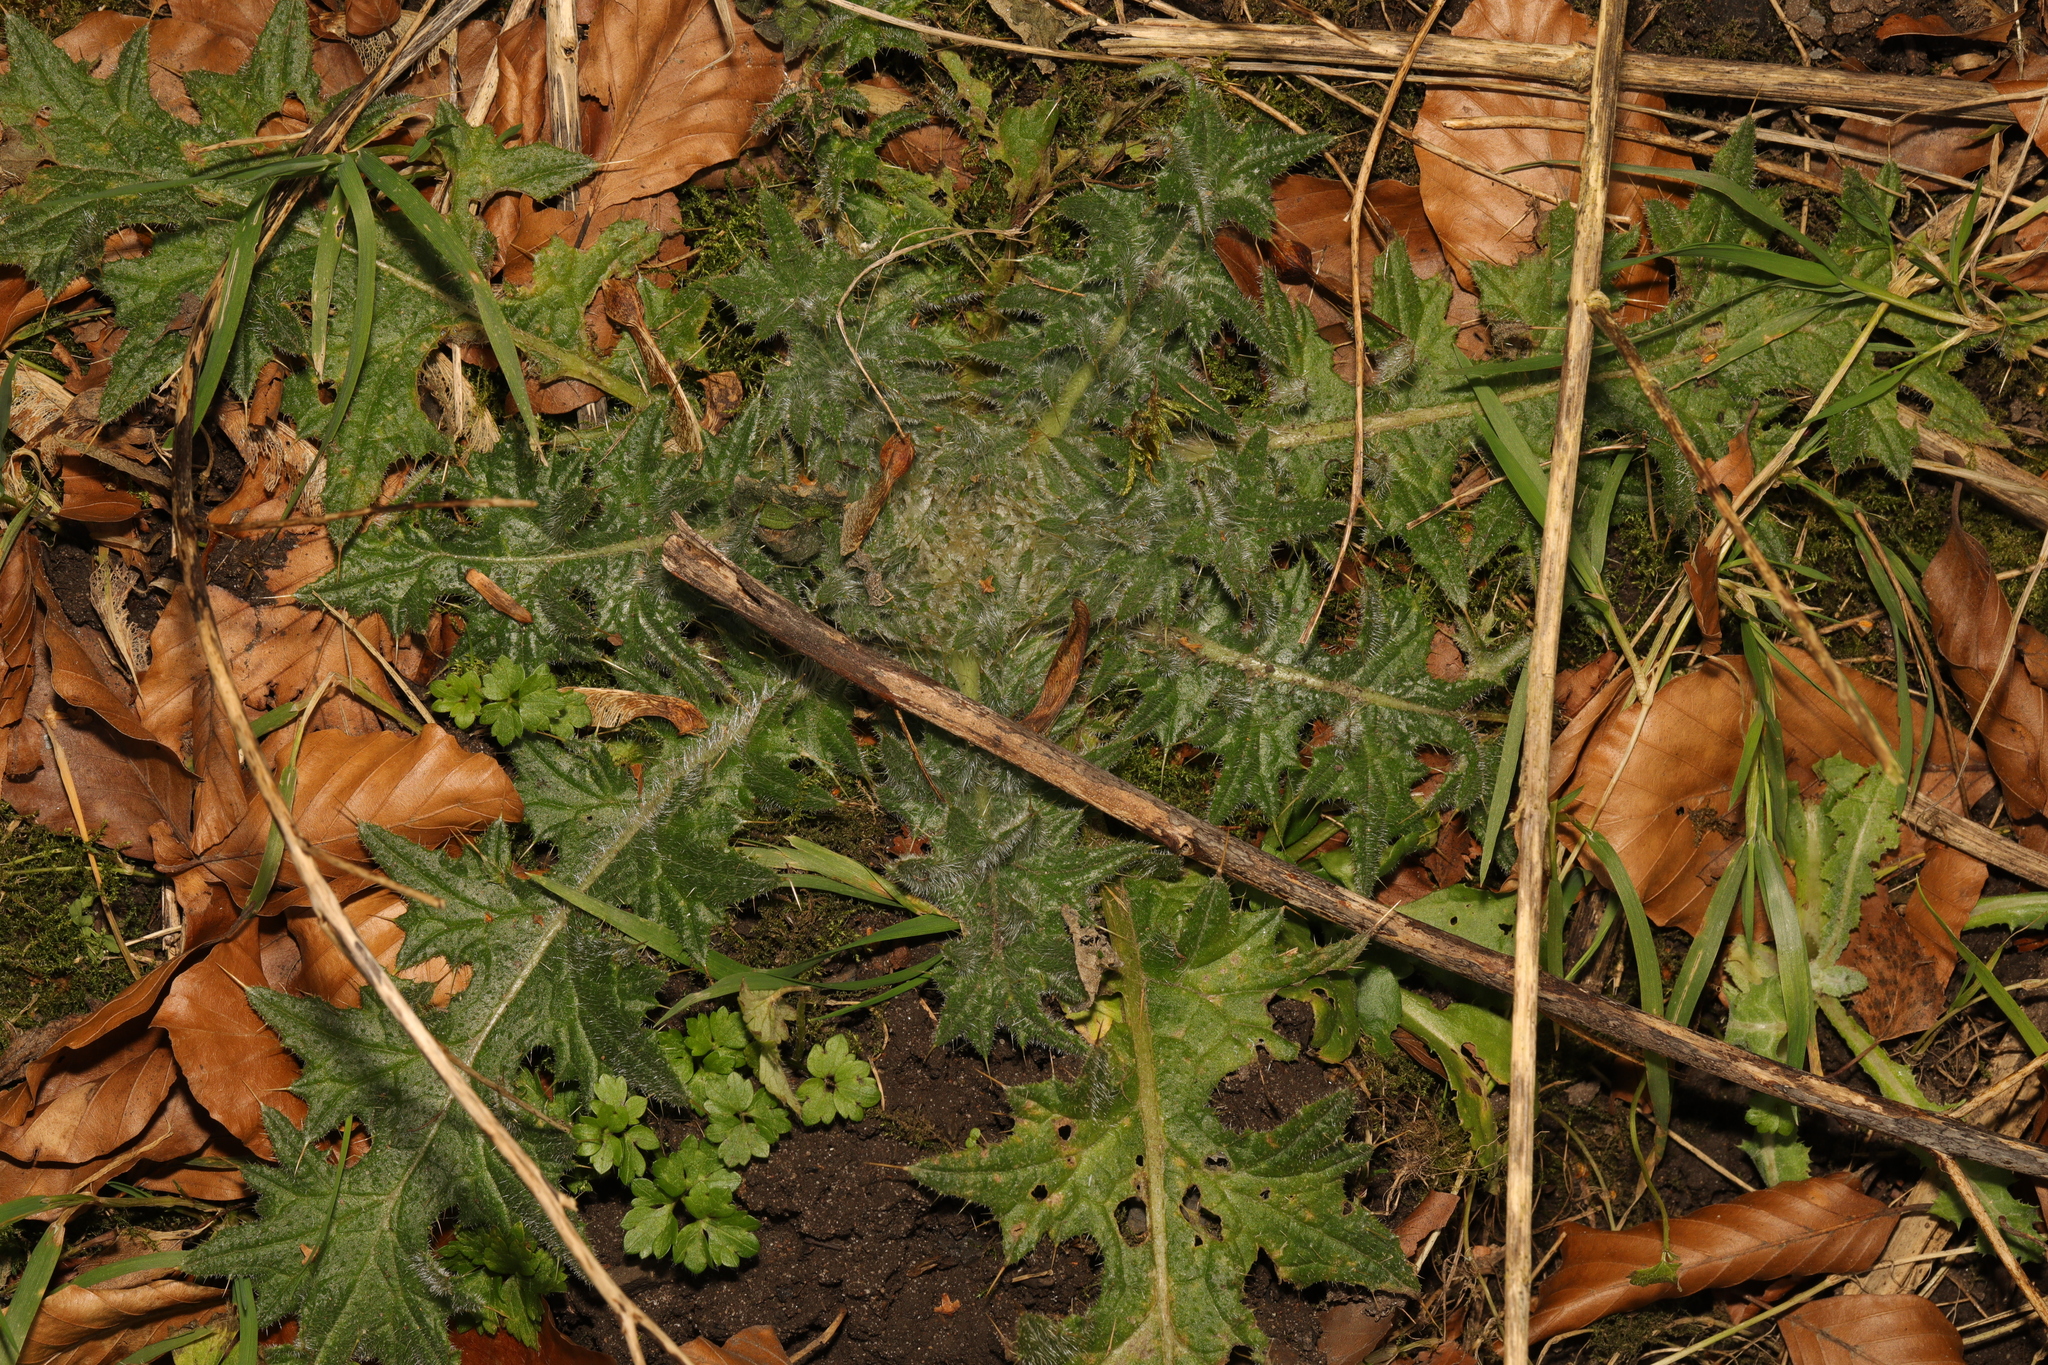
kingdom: Plantae
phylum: Tracheophyta
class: Magnoliopsida
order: Asterales
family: Asteraceae
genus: Cirsium
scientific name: Cirsium vulgare
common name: Bull thistle
